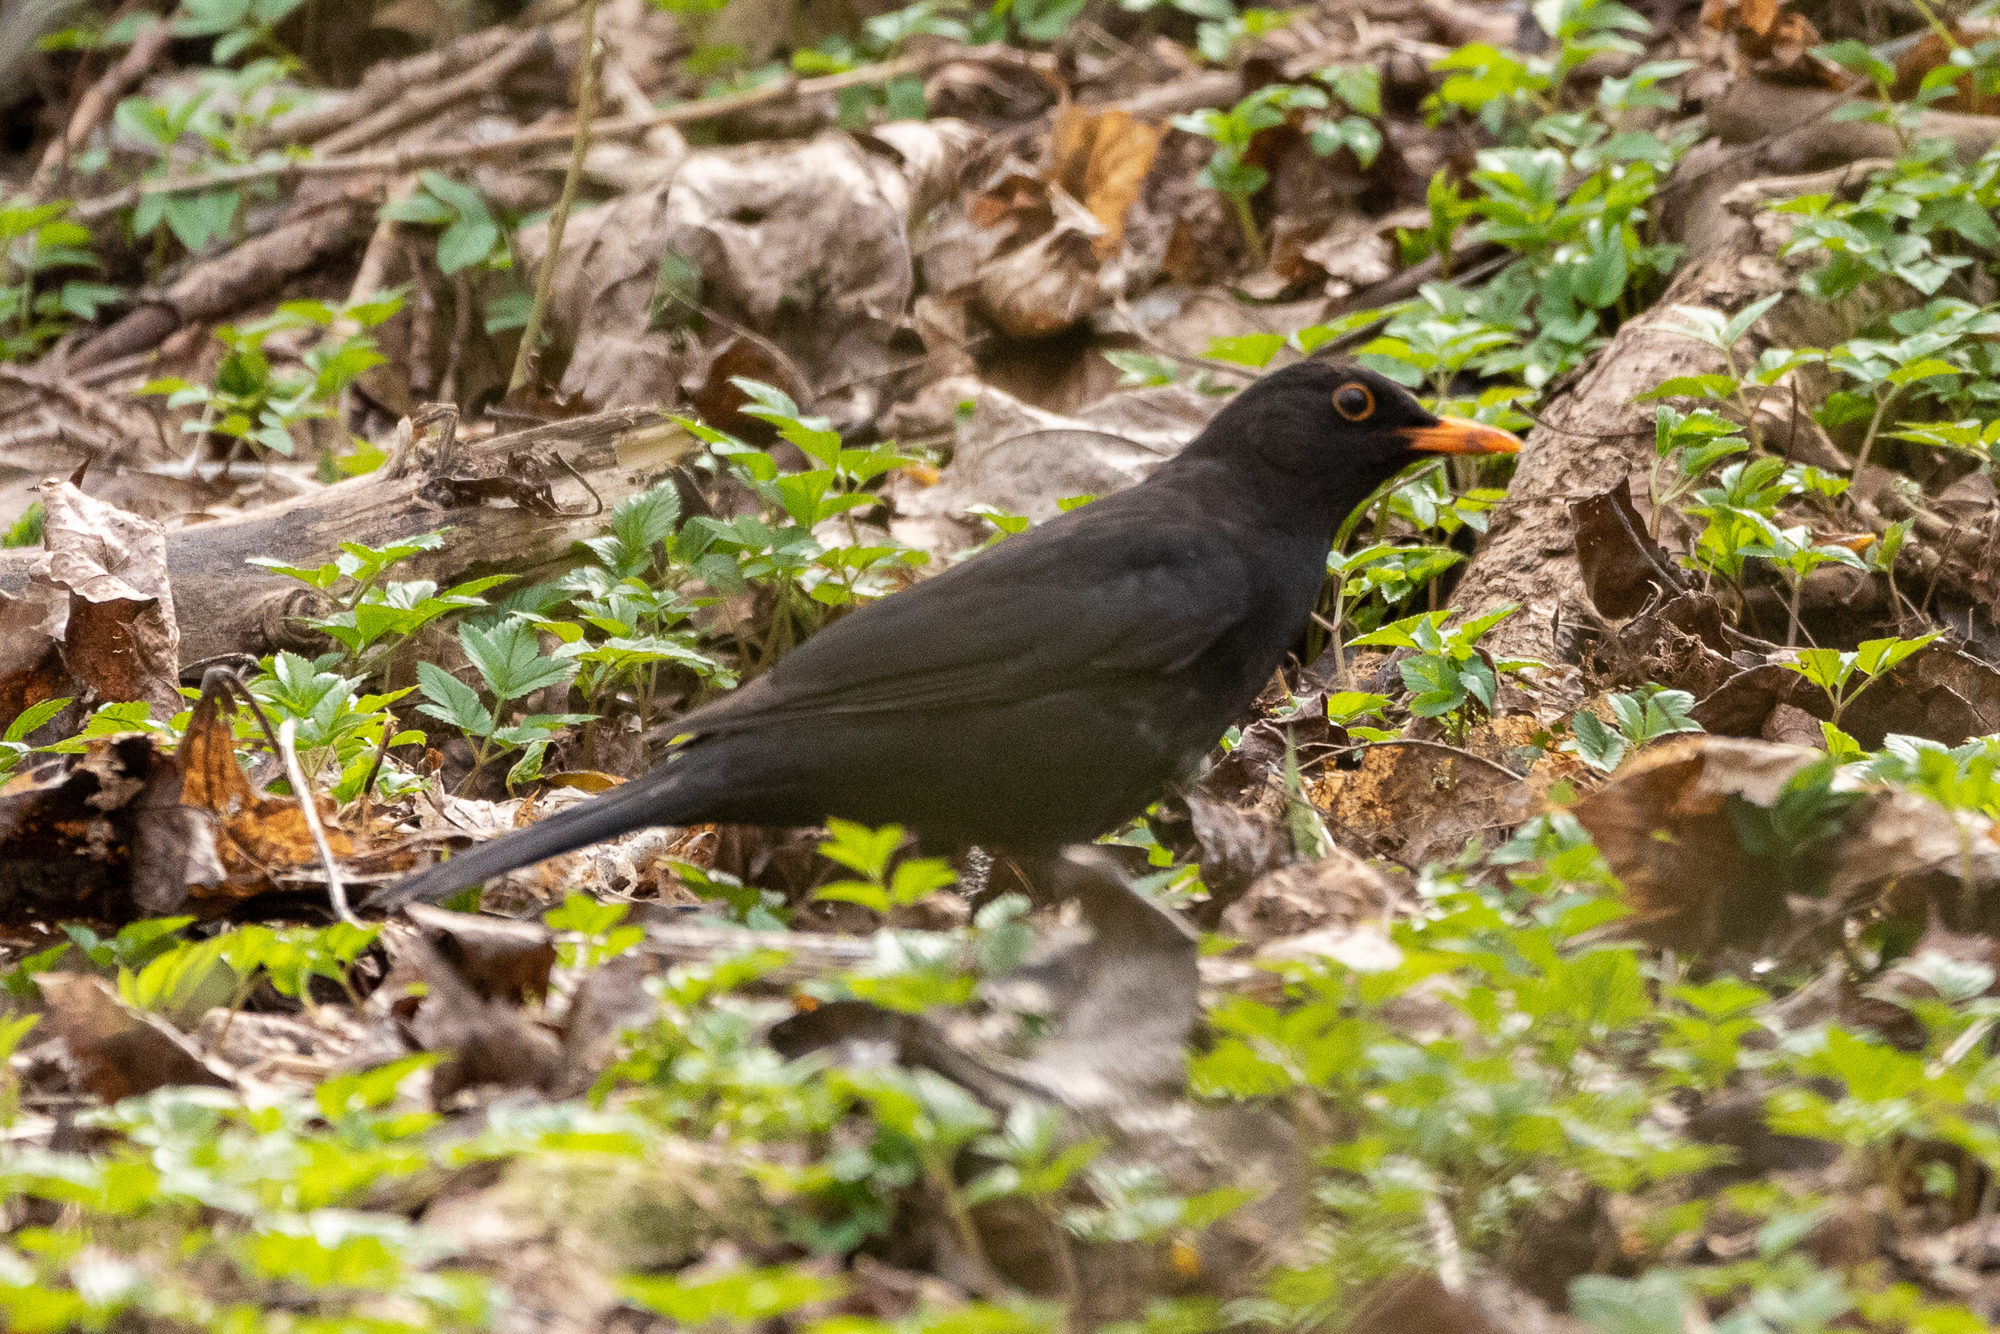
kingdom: Animalia
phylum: Chordata
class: Aves
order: Passeriformes
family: Turdidae
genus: Turdus
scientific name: Turdus merula
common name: Common blackbird
